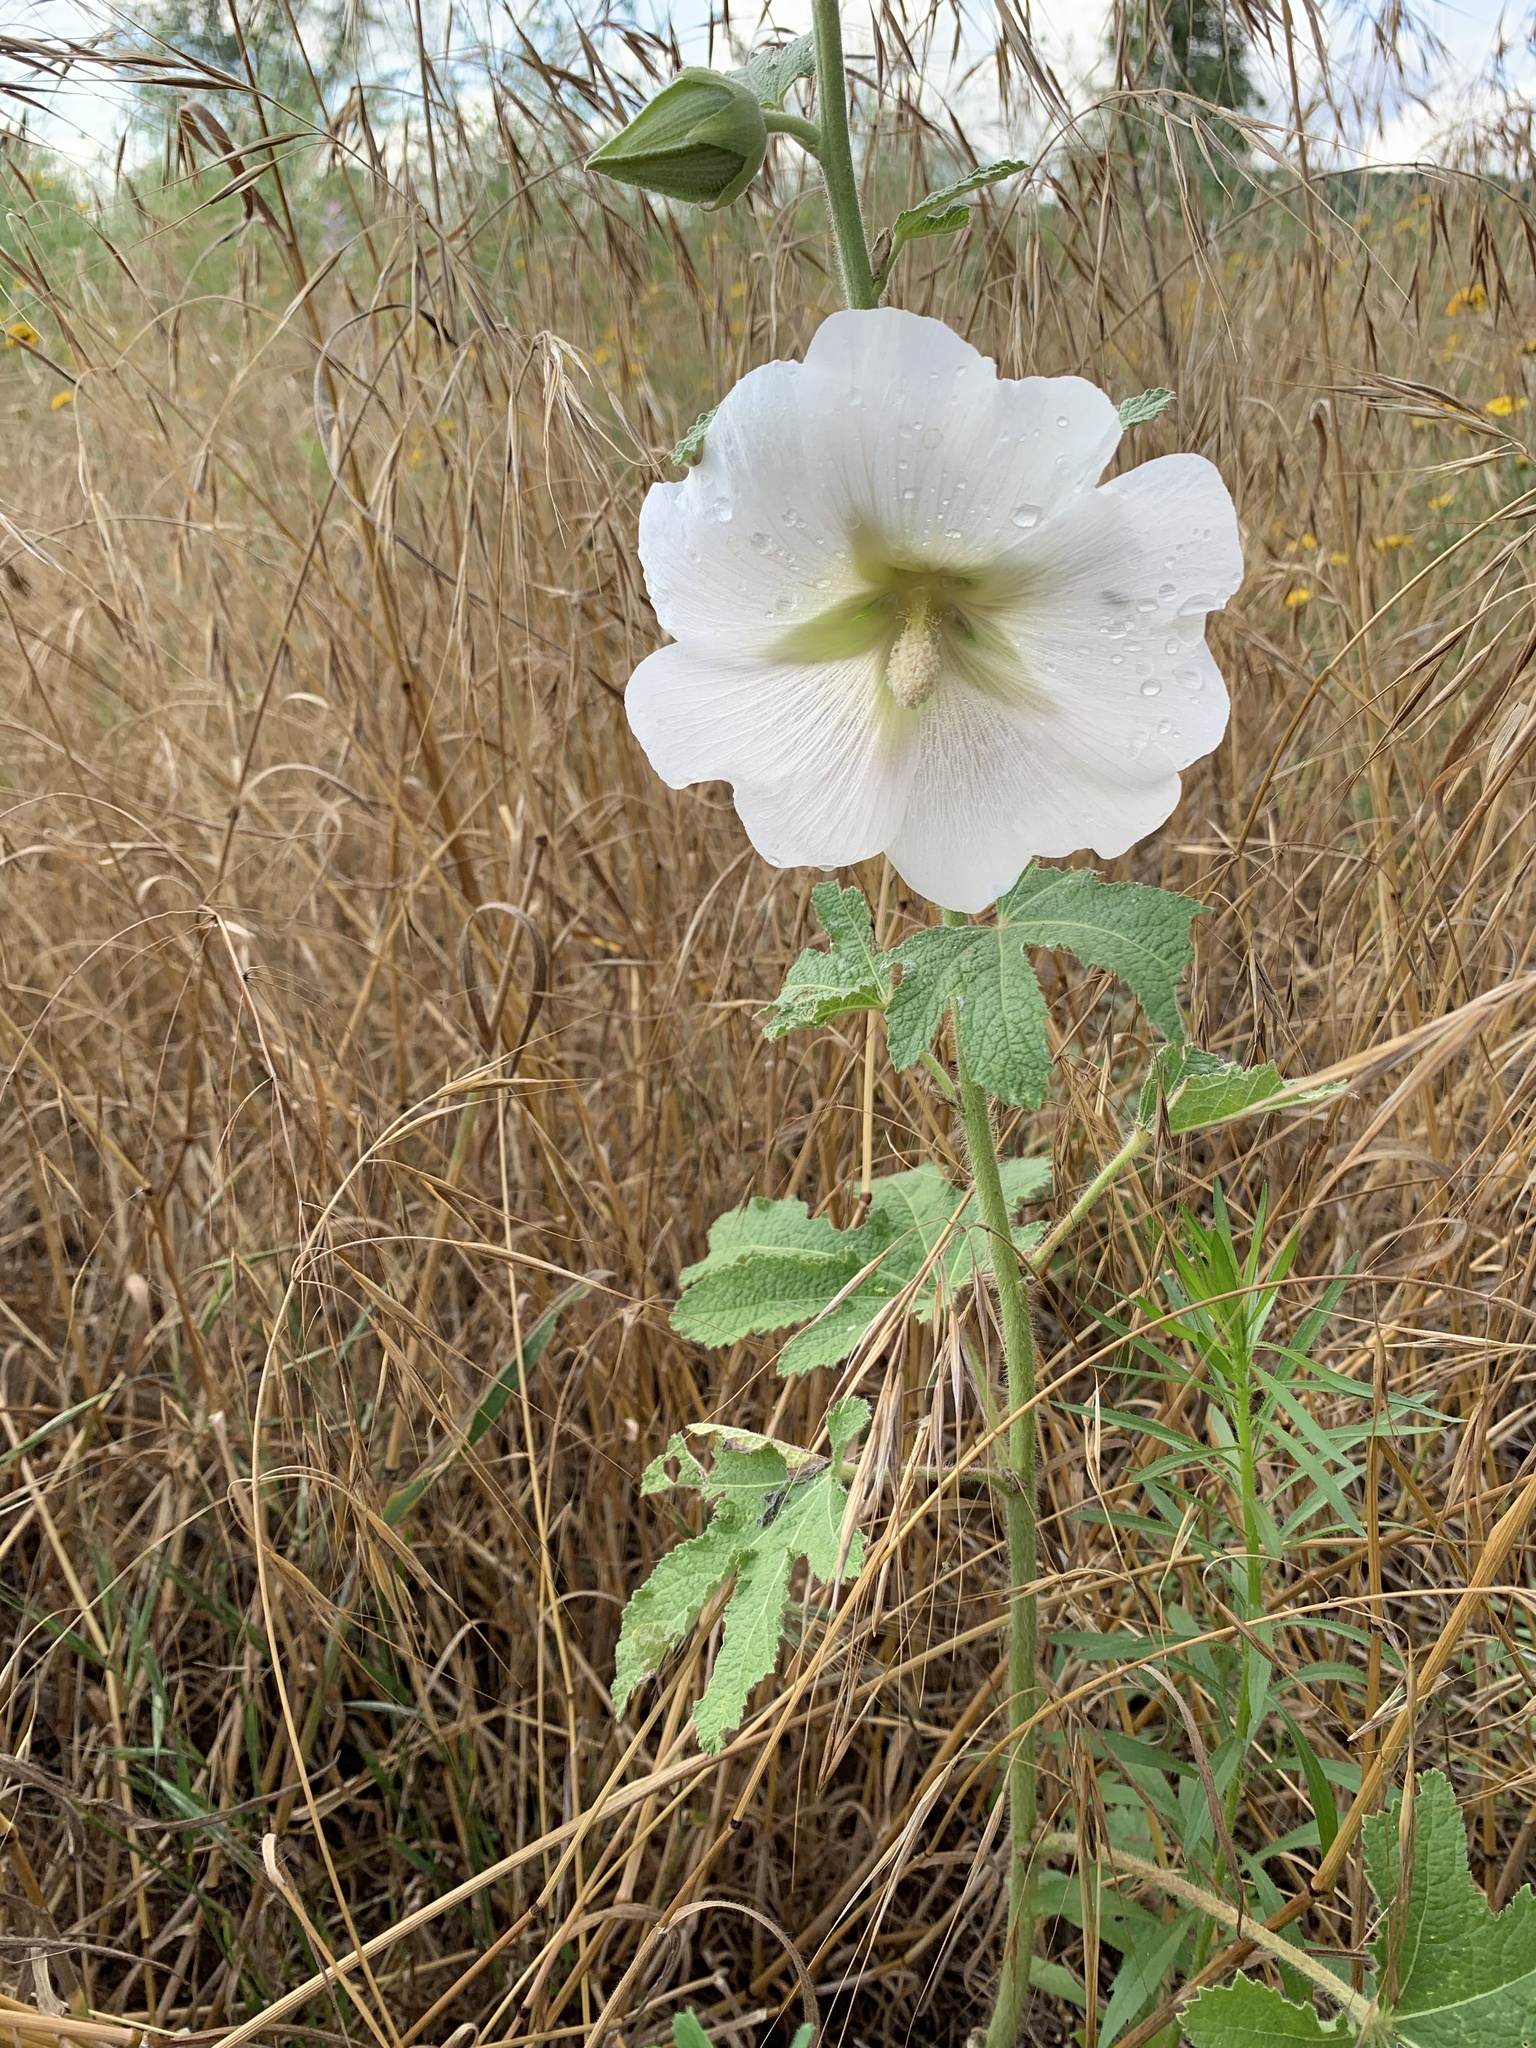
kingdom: Plantae
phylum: Tracheophyta
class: Magnoliopsida
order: Malvales
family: Malvaceae
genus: Alcea
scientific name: Alcea rosea
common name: Hollyhock
